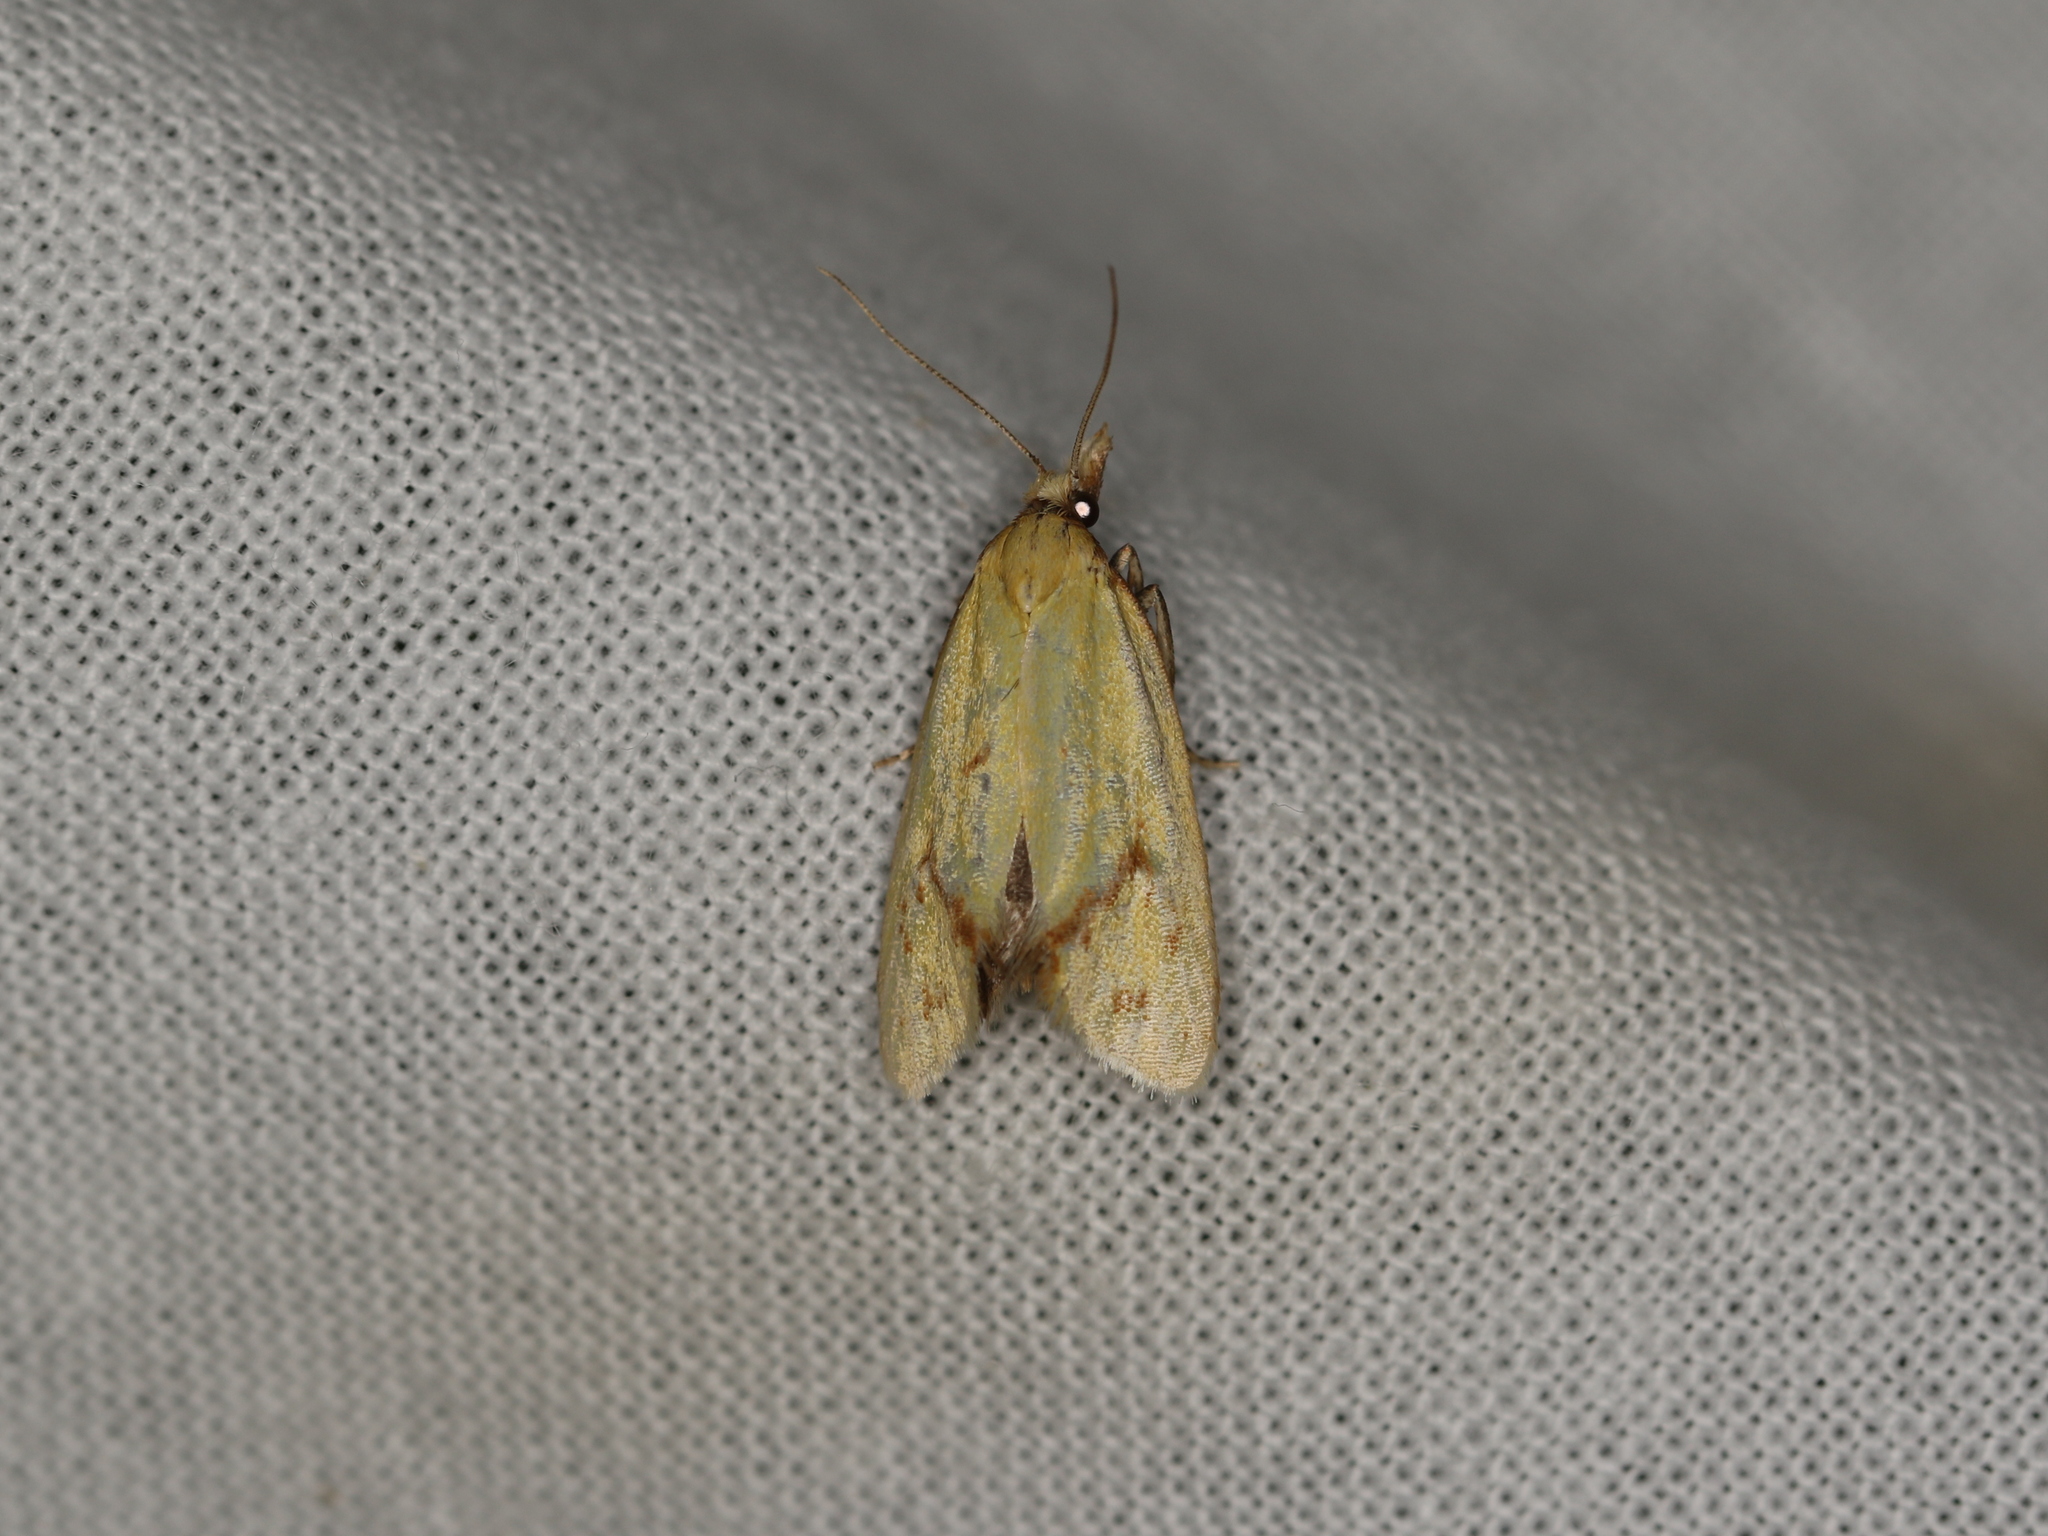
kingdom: Animalia
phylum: Arthropoda
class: Insecta
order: Lepidoptera
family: Tortricidae
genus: Agapeta
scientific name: Agapeta hamana
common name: Common yellow conch
